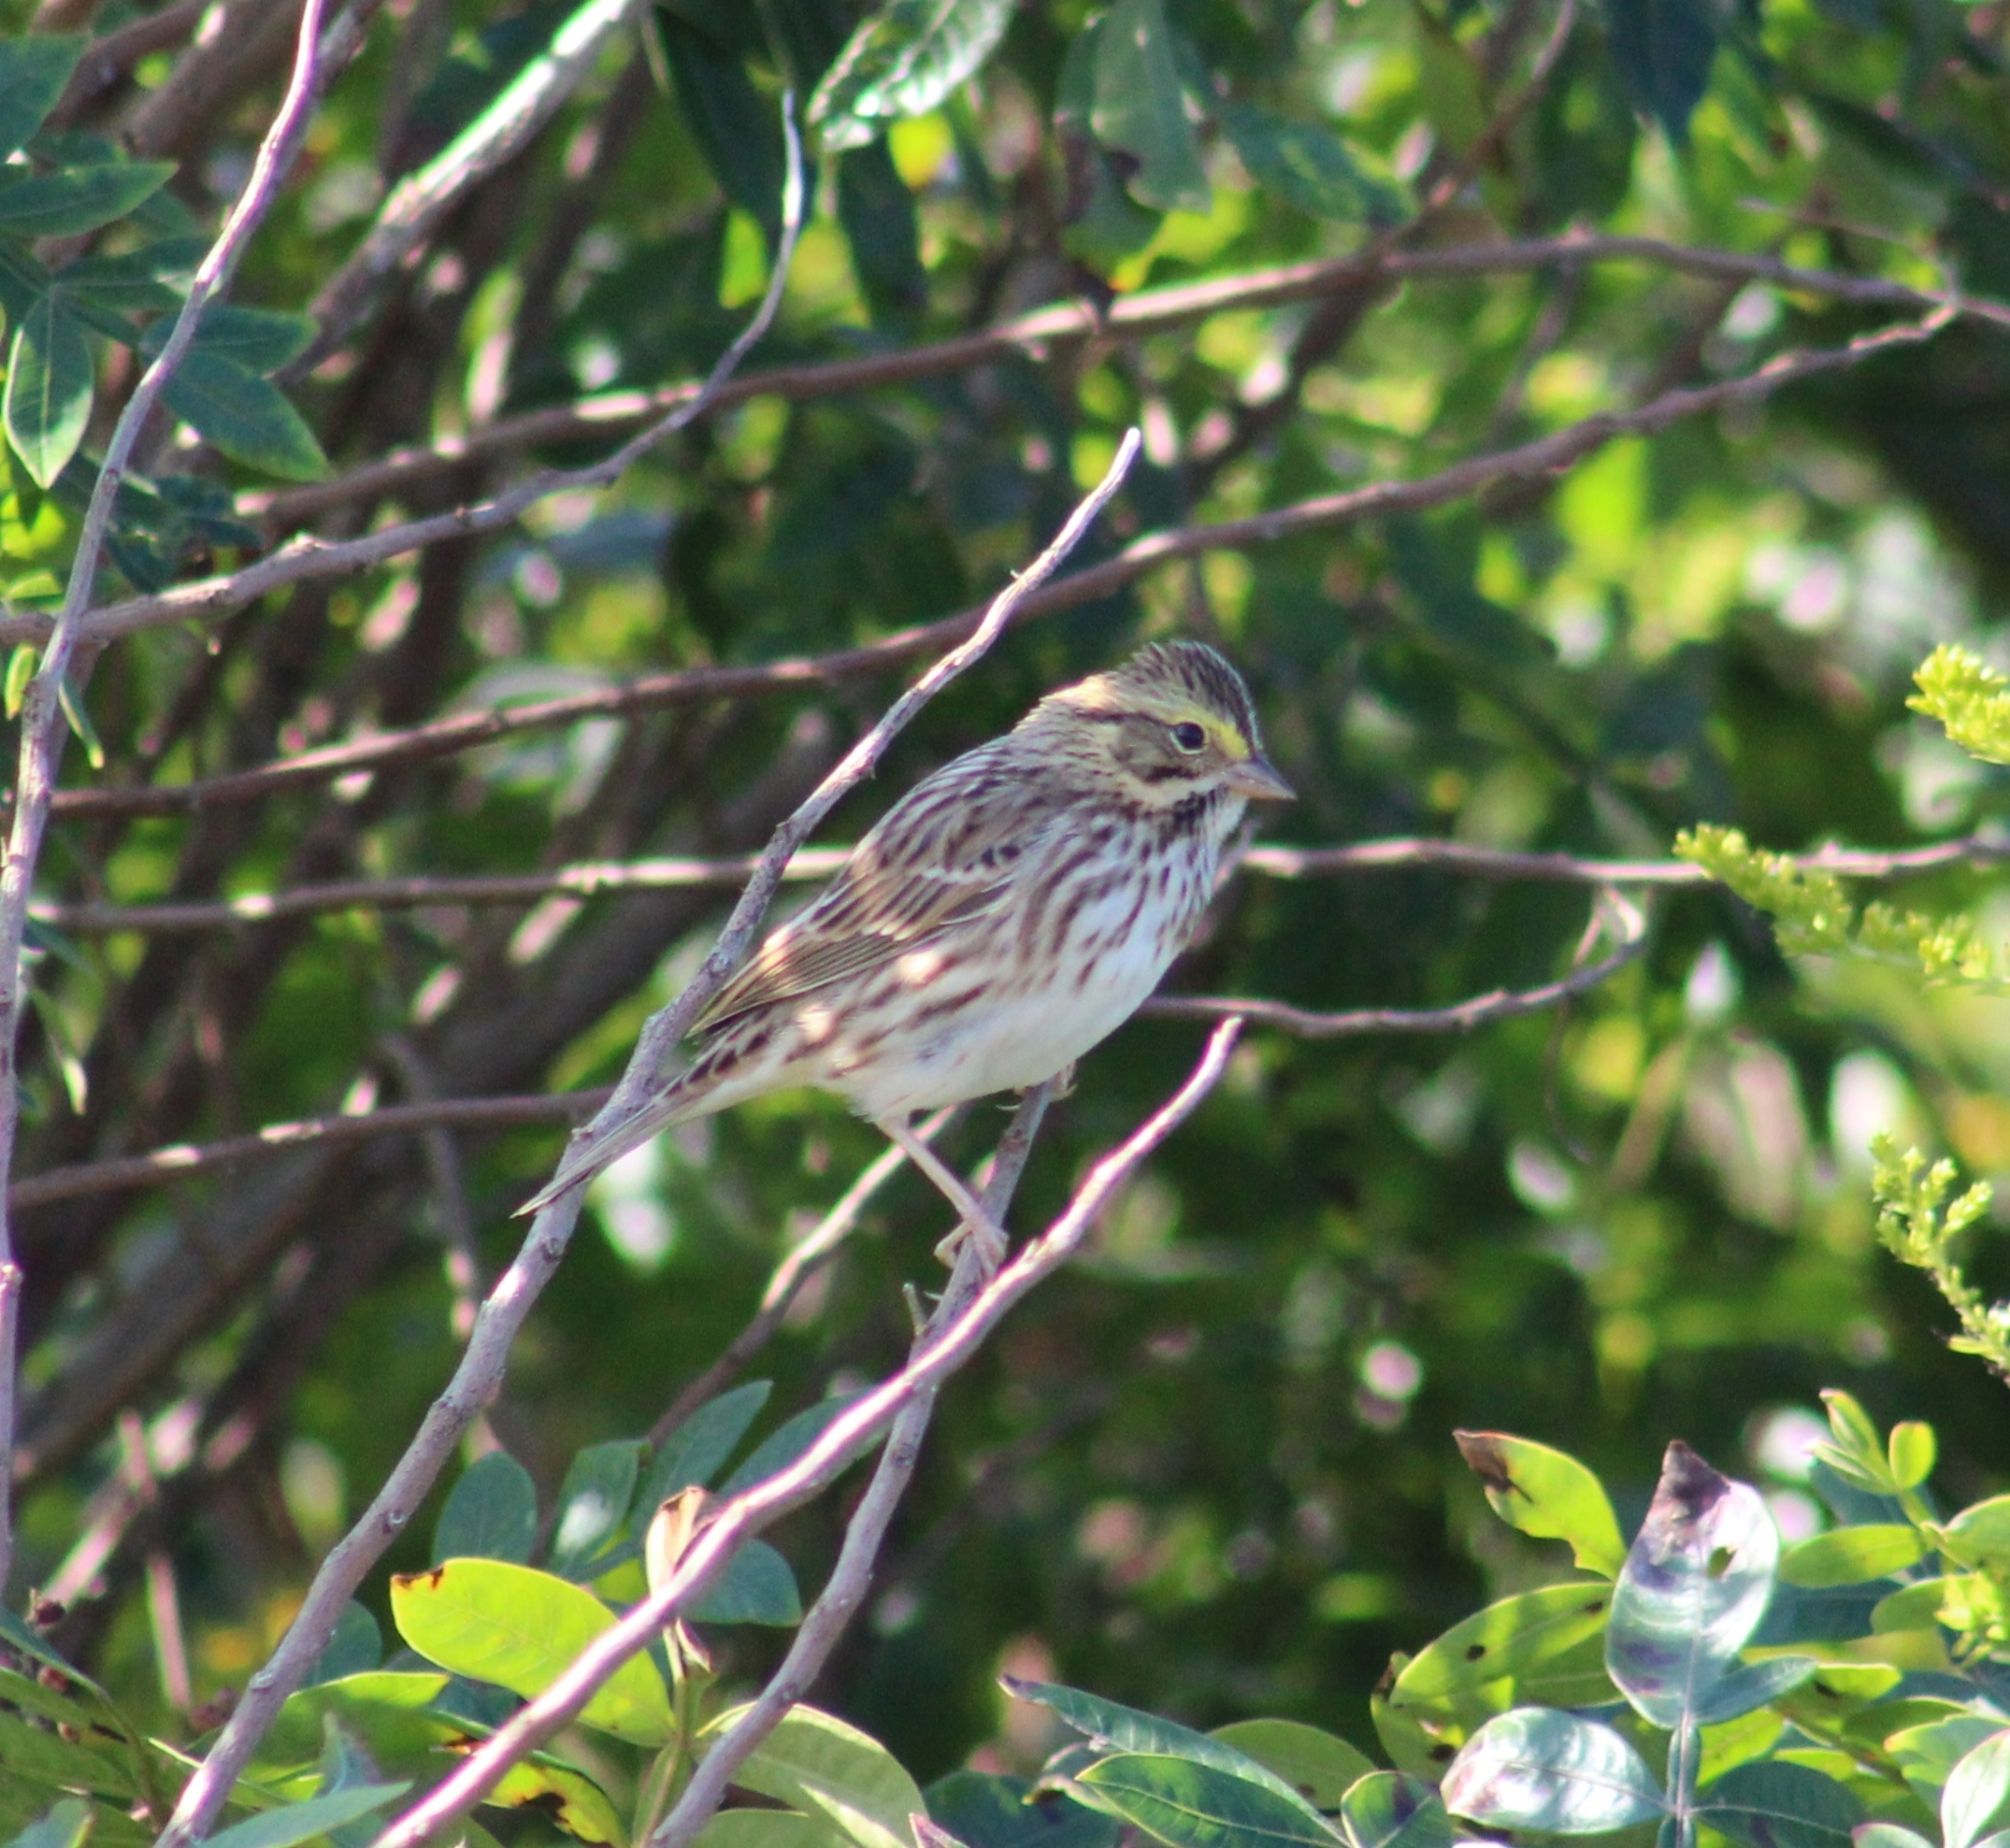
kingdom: Animalia
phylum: Chordata
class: Aves
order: Passeriformes
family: Passerellidae
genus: Passerculus
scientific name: Passerculus sandwichensis
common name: Savannah sparrow
